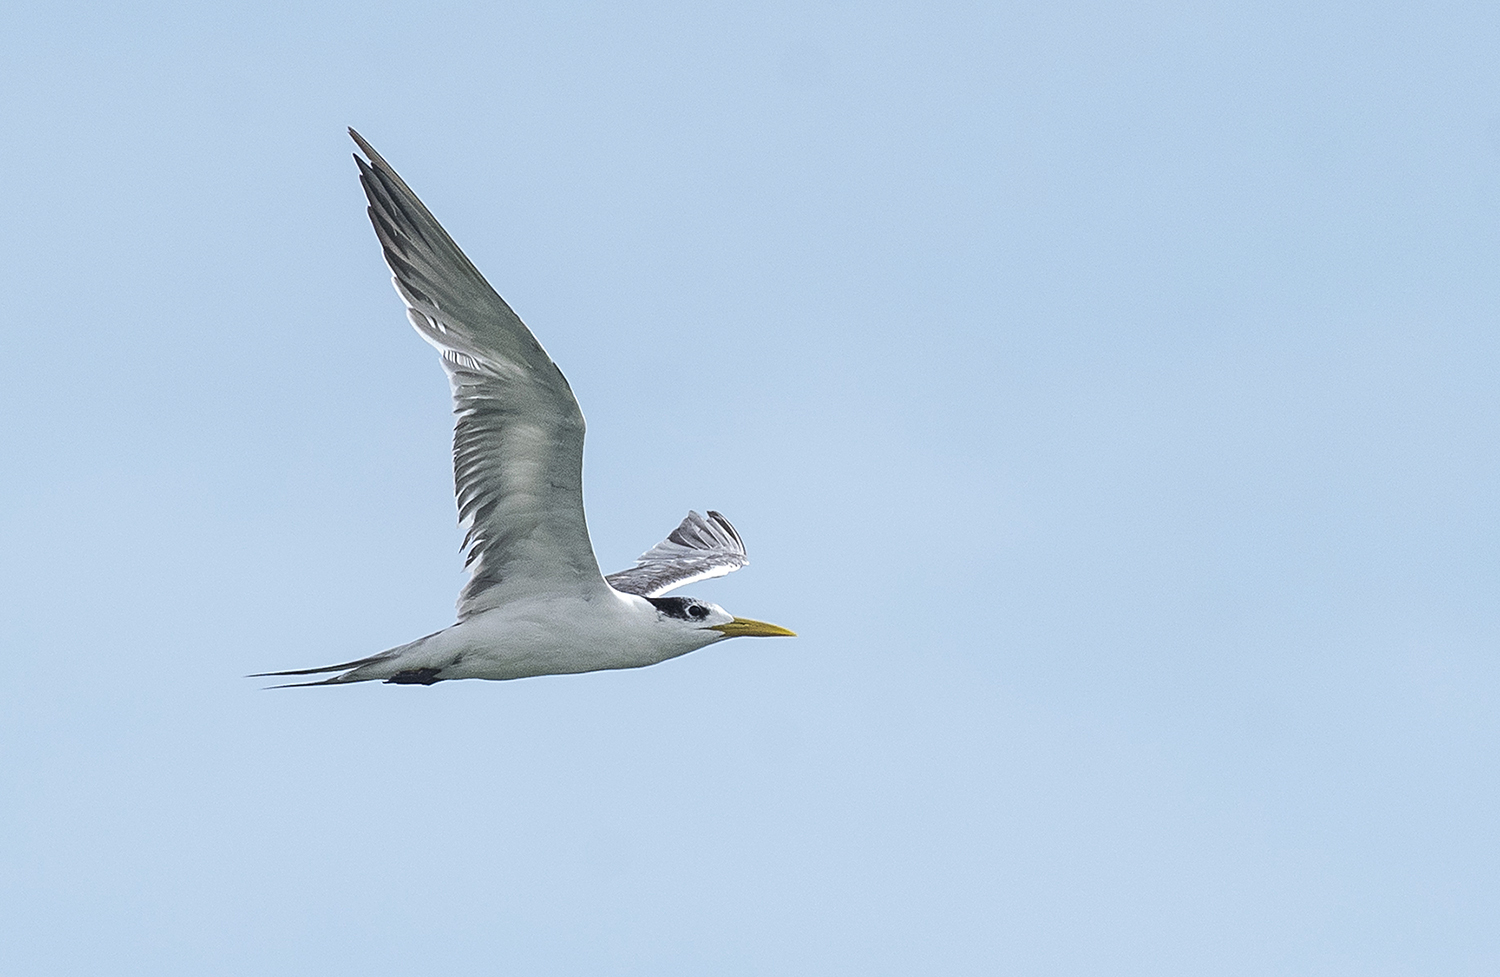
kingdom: Animalia
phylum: Chordata
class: Aves
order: Charadriiformes
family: Laridae
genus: Thalasseus
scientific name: Thalasseus bergii
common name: Greater crested tern
